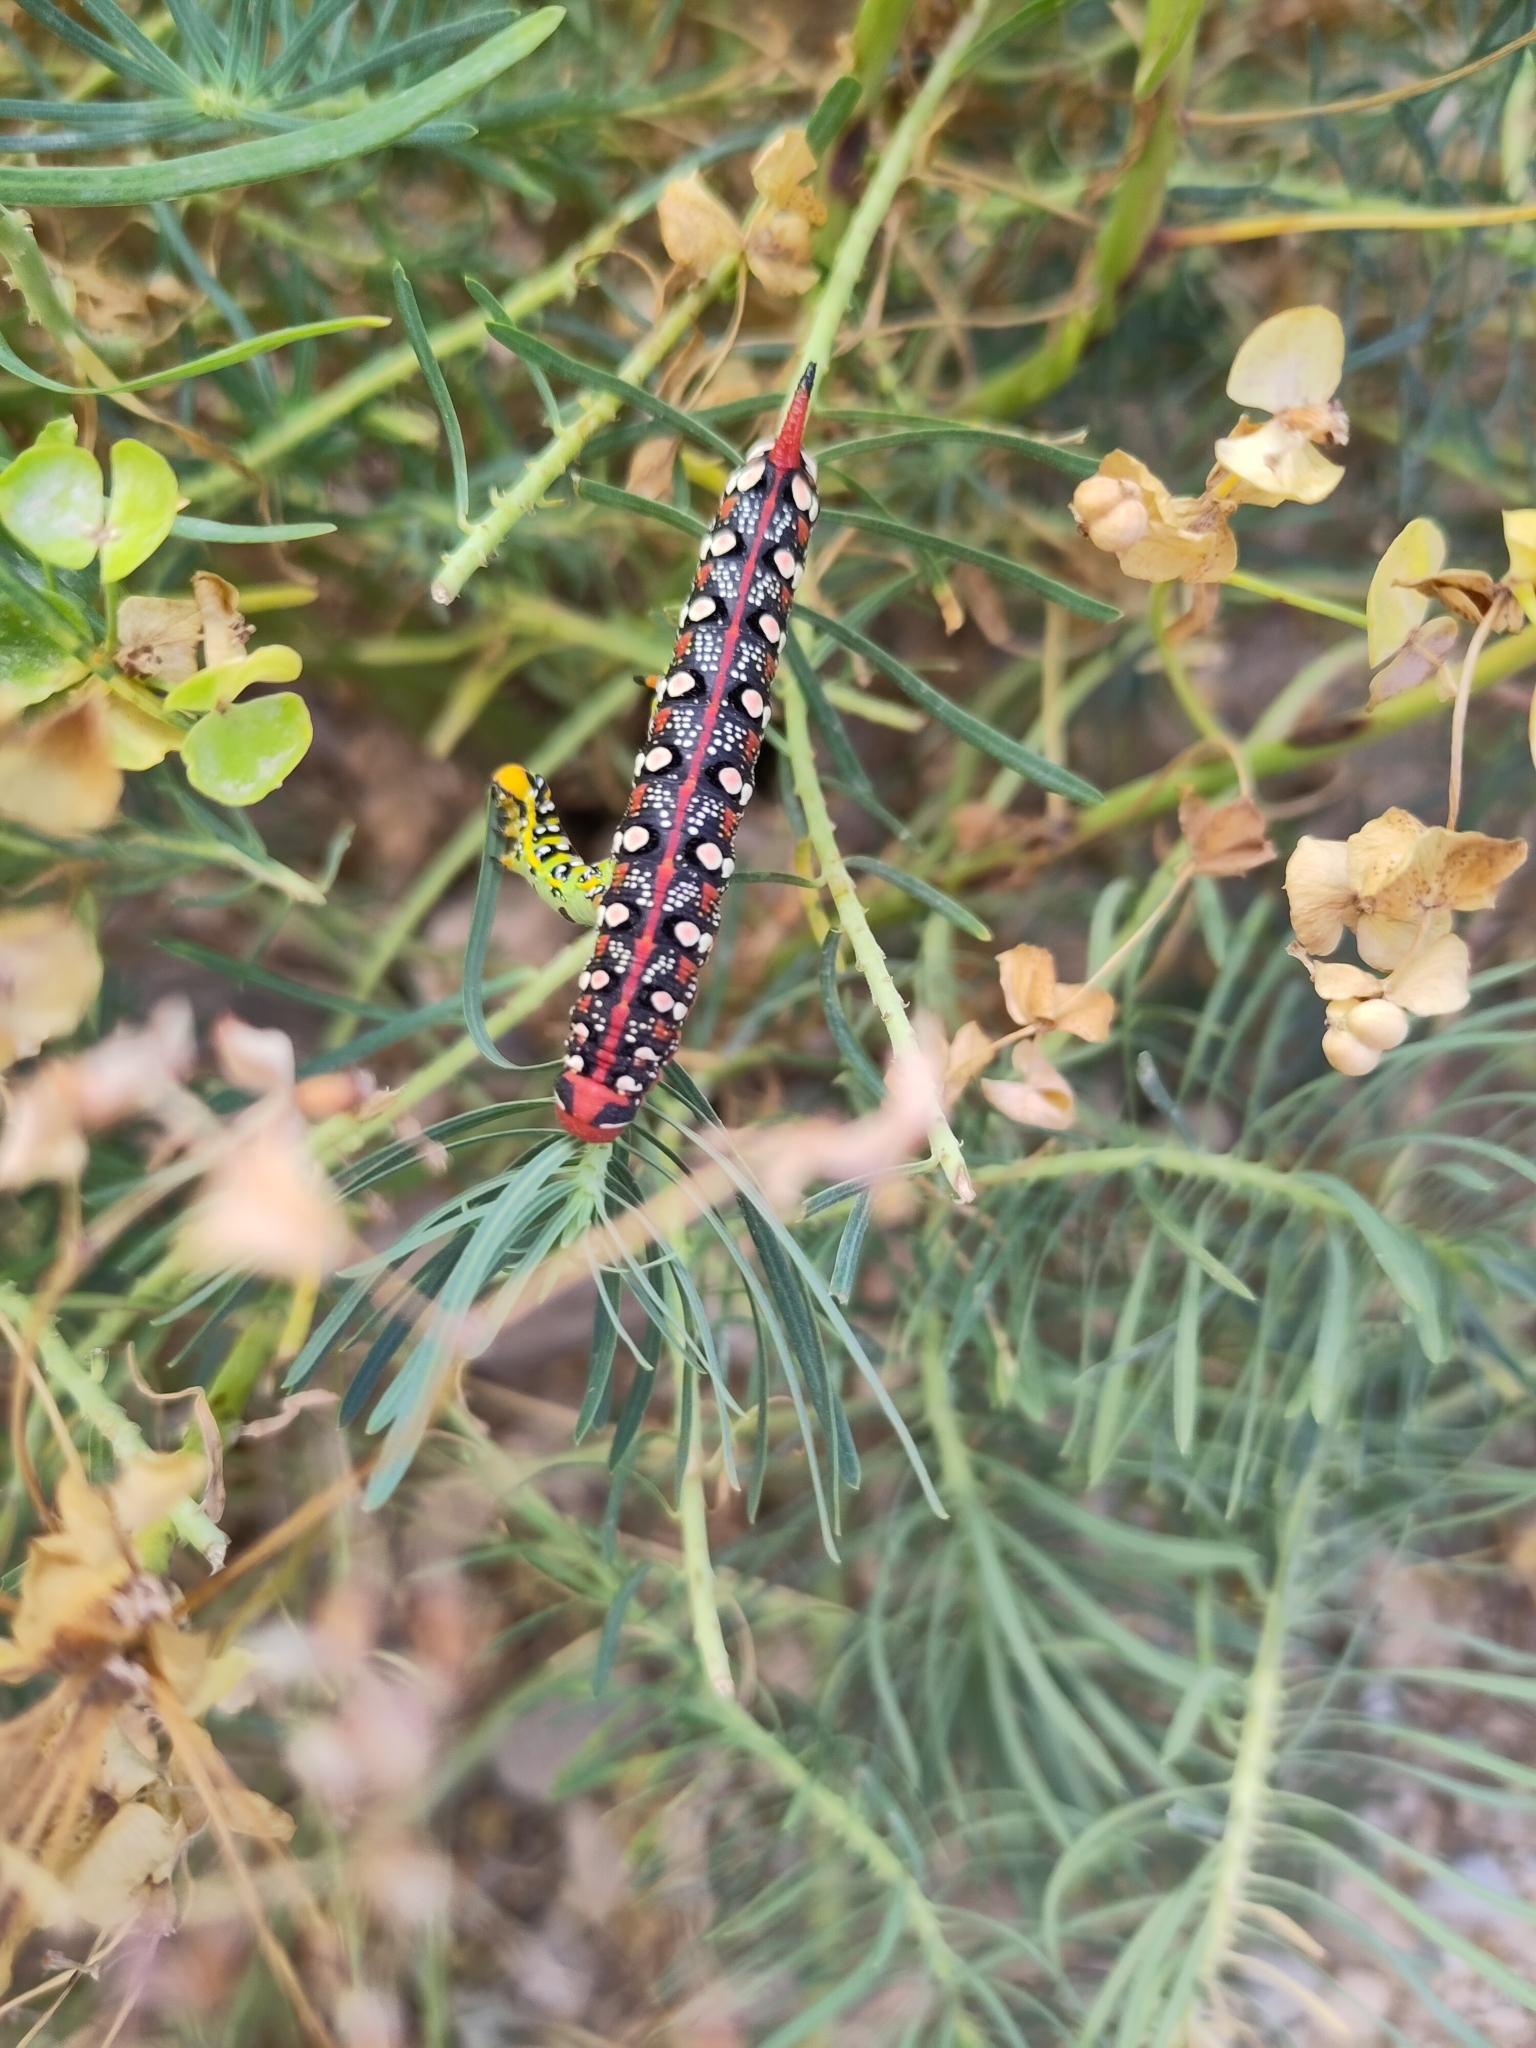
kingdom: Animalia
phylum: Arthropoda
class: Insecta
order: Lepidoptera
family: Sphingidae
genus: Hyles
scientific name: Hyles euphorbiae
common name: Spurge hawk-moth
